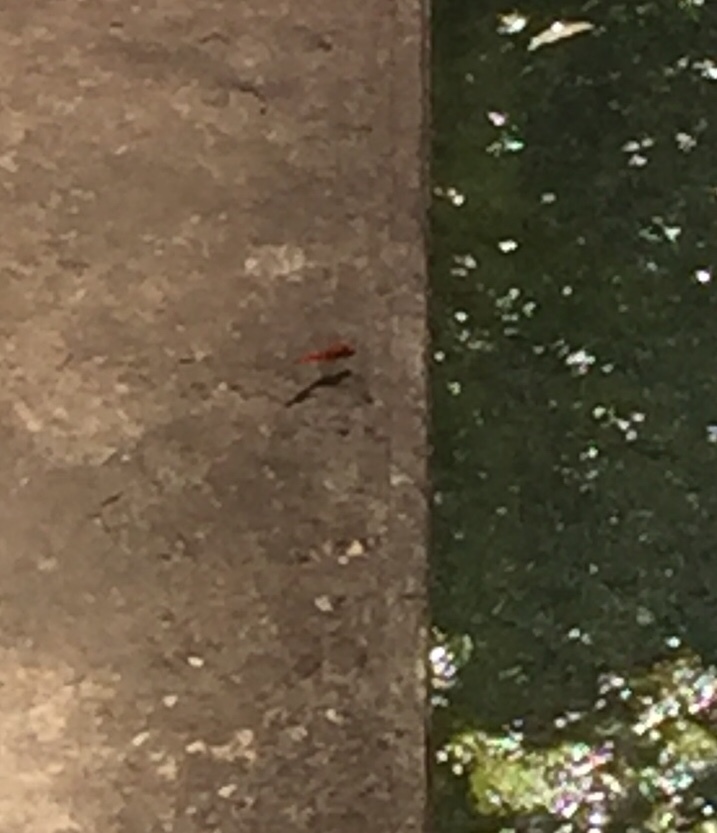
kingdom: Animalia
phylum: Arthropoda
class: Insecta
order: Odonata
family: Libellulidae
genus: Crocothemis
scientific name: Crocothemis servilia
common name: Scarlet skimmer
